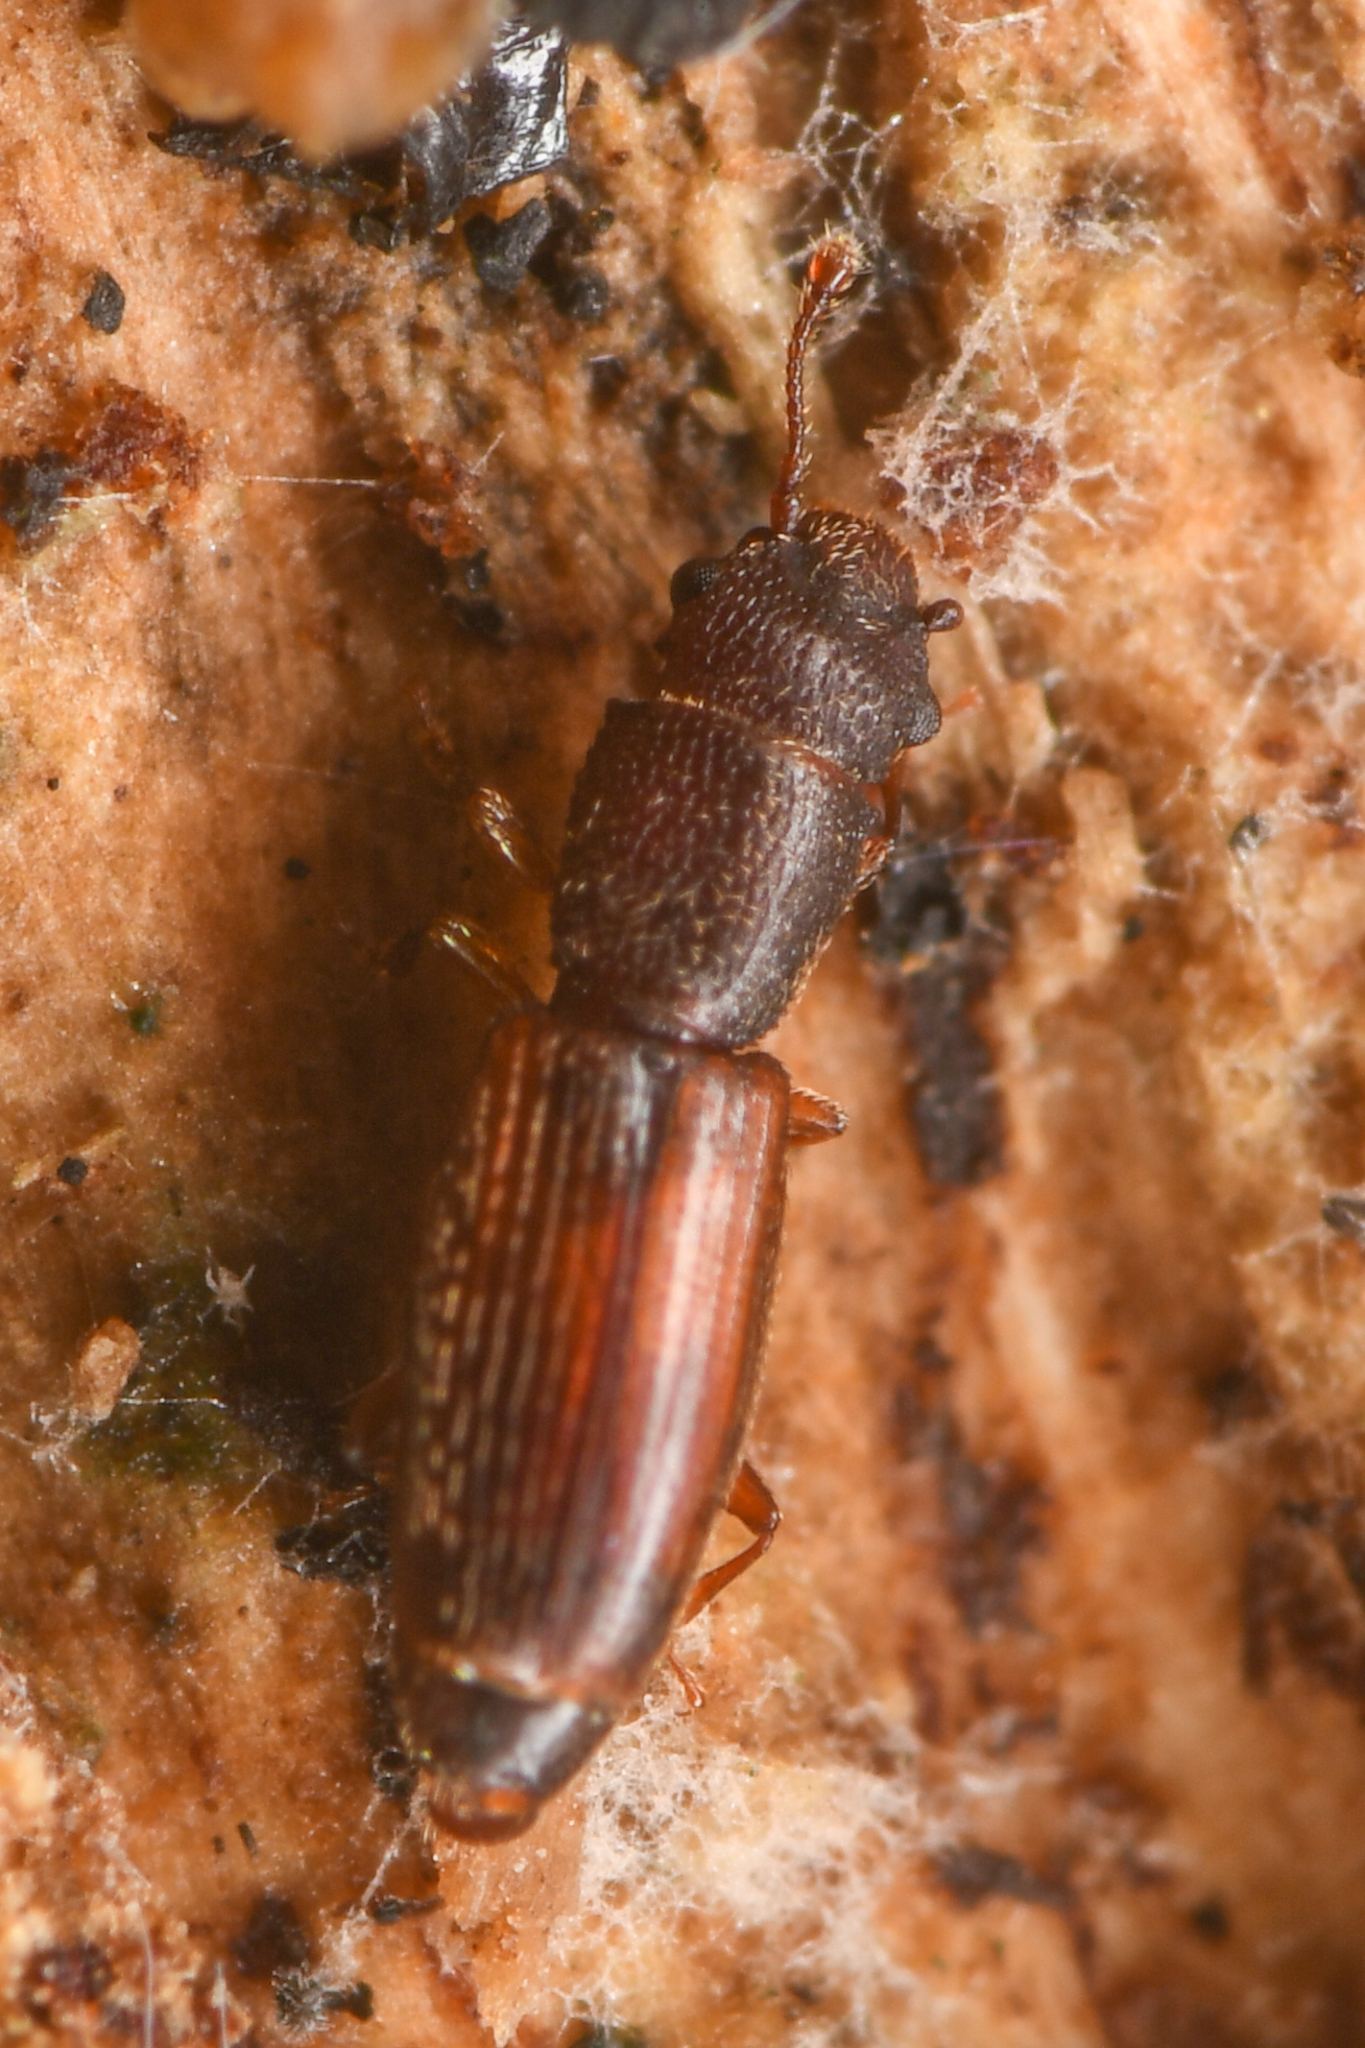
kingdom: Animalia
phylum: Arthropoda
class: Insecta
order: Coleoptera
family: Monotomidae
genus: Hesperobaenus
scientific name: Hesperobaenus abbreviatus
